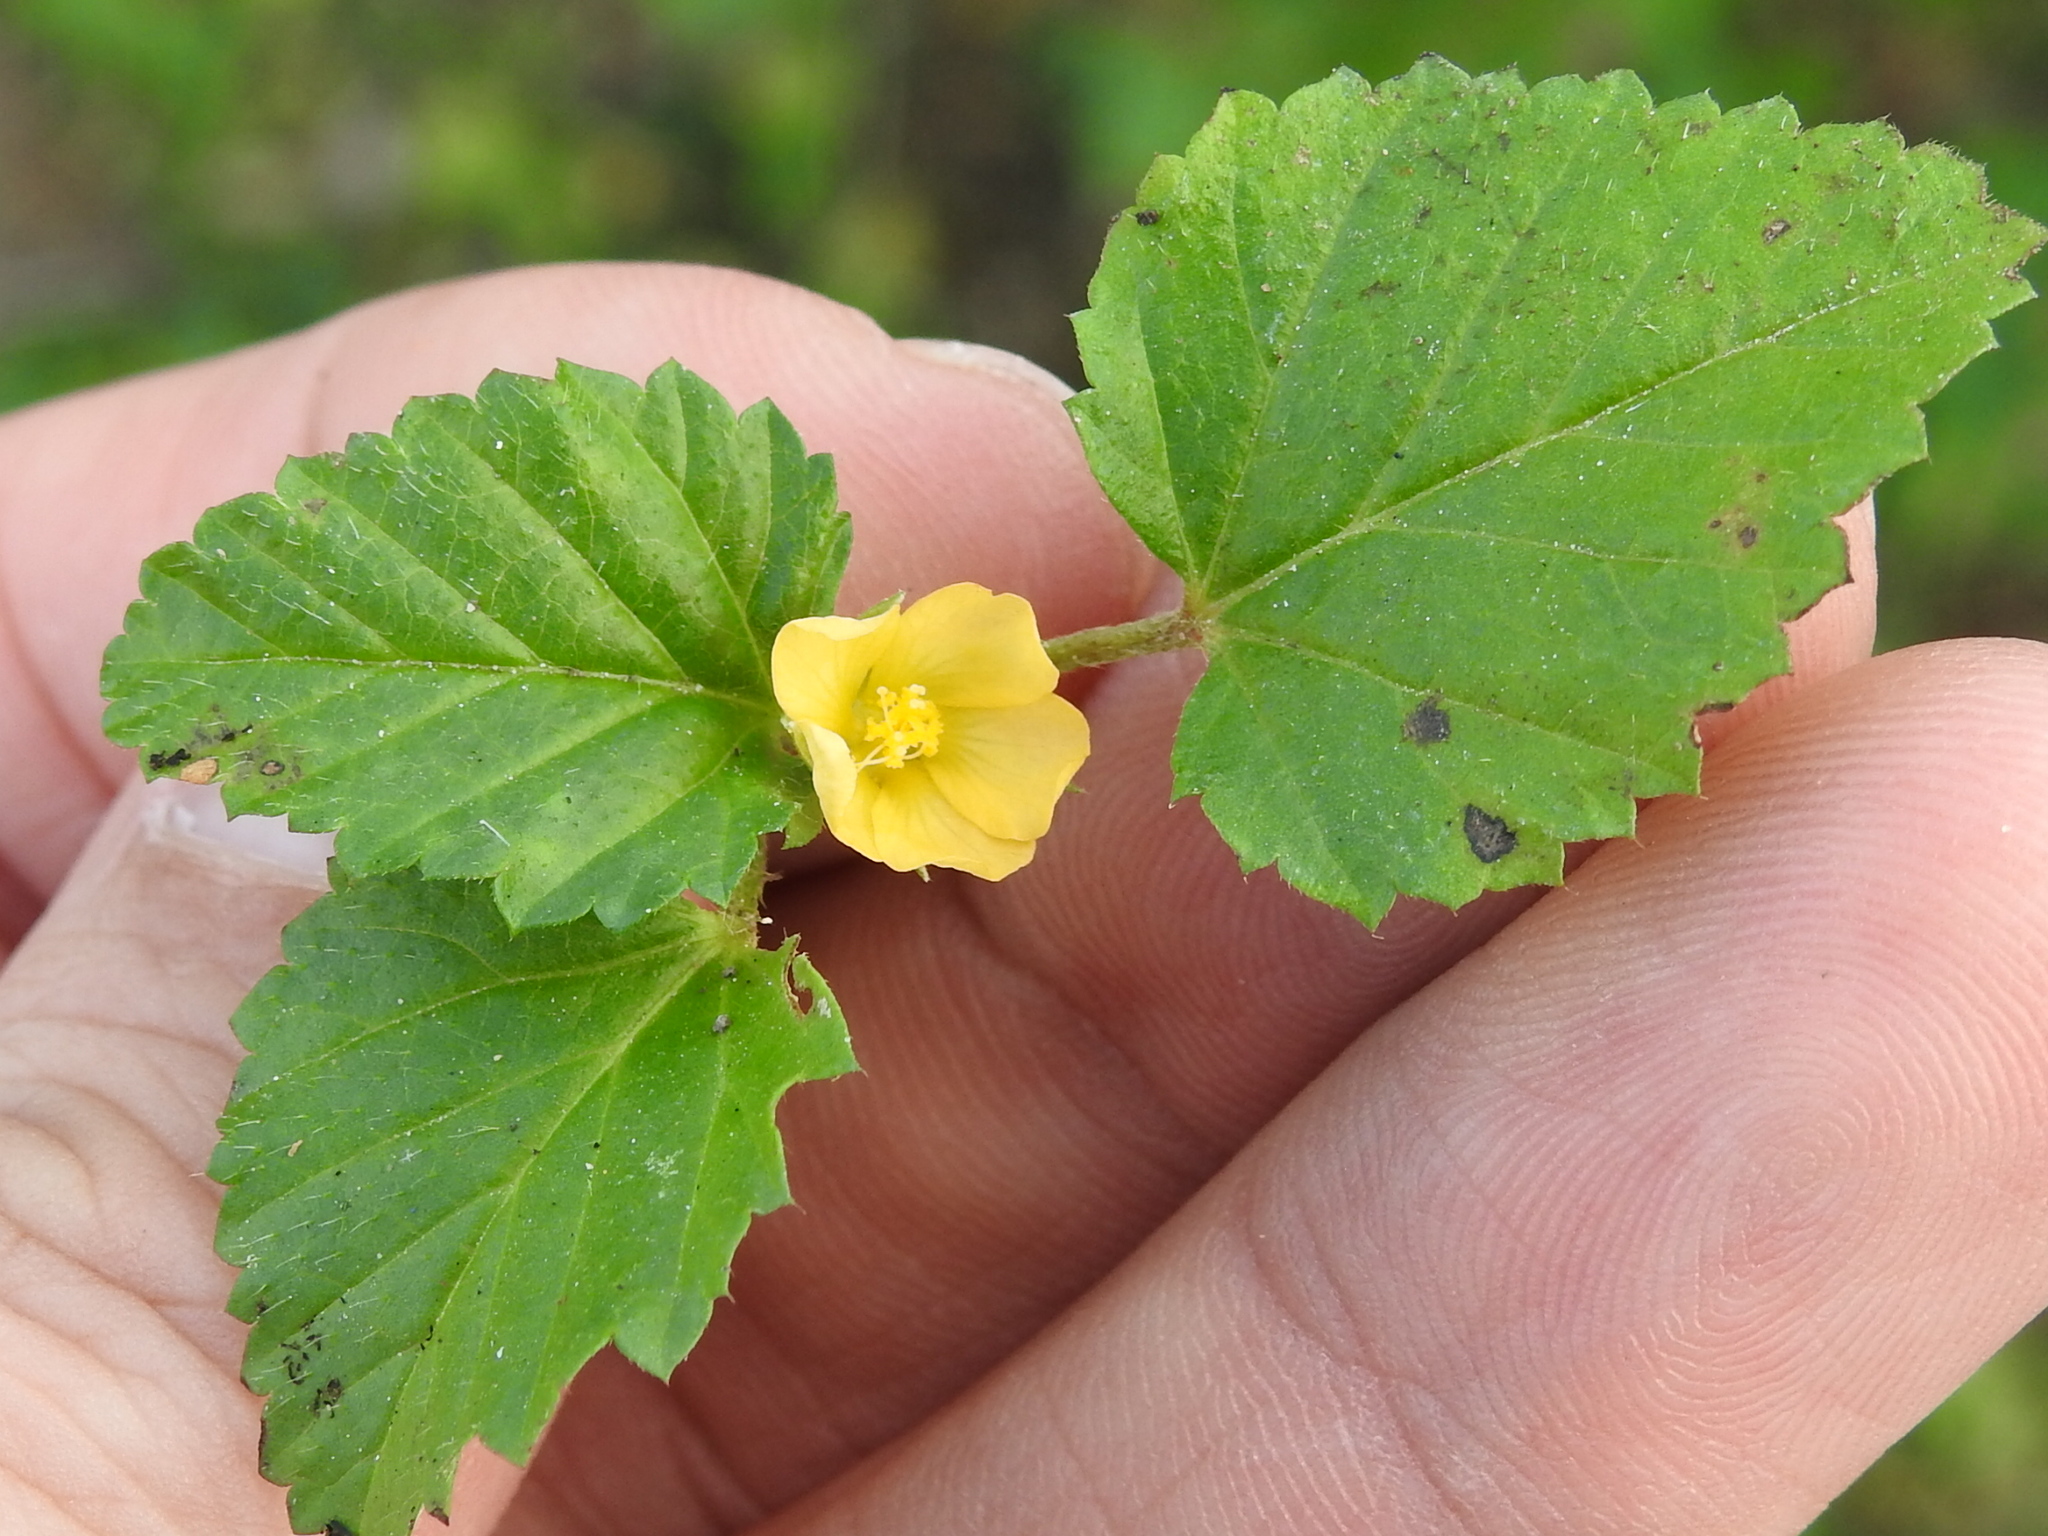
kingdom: Plantae
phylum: Tracheophyta
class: Magnoliopsida
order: Malvales
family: Malvaceae
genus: Malvastrum
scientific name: Malvastrum coromandelianum
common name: Threelobe false mallow
